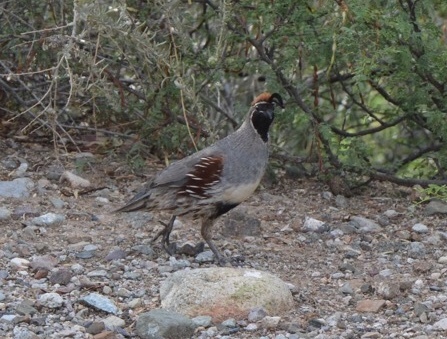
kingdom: Animalia
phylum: Chordata
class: Aves
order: Galliformes
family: Odontophoridae
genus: Callipepla
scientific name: Callipepla gambelii
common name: Gambel's quail
